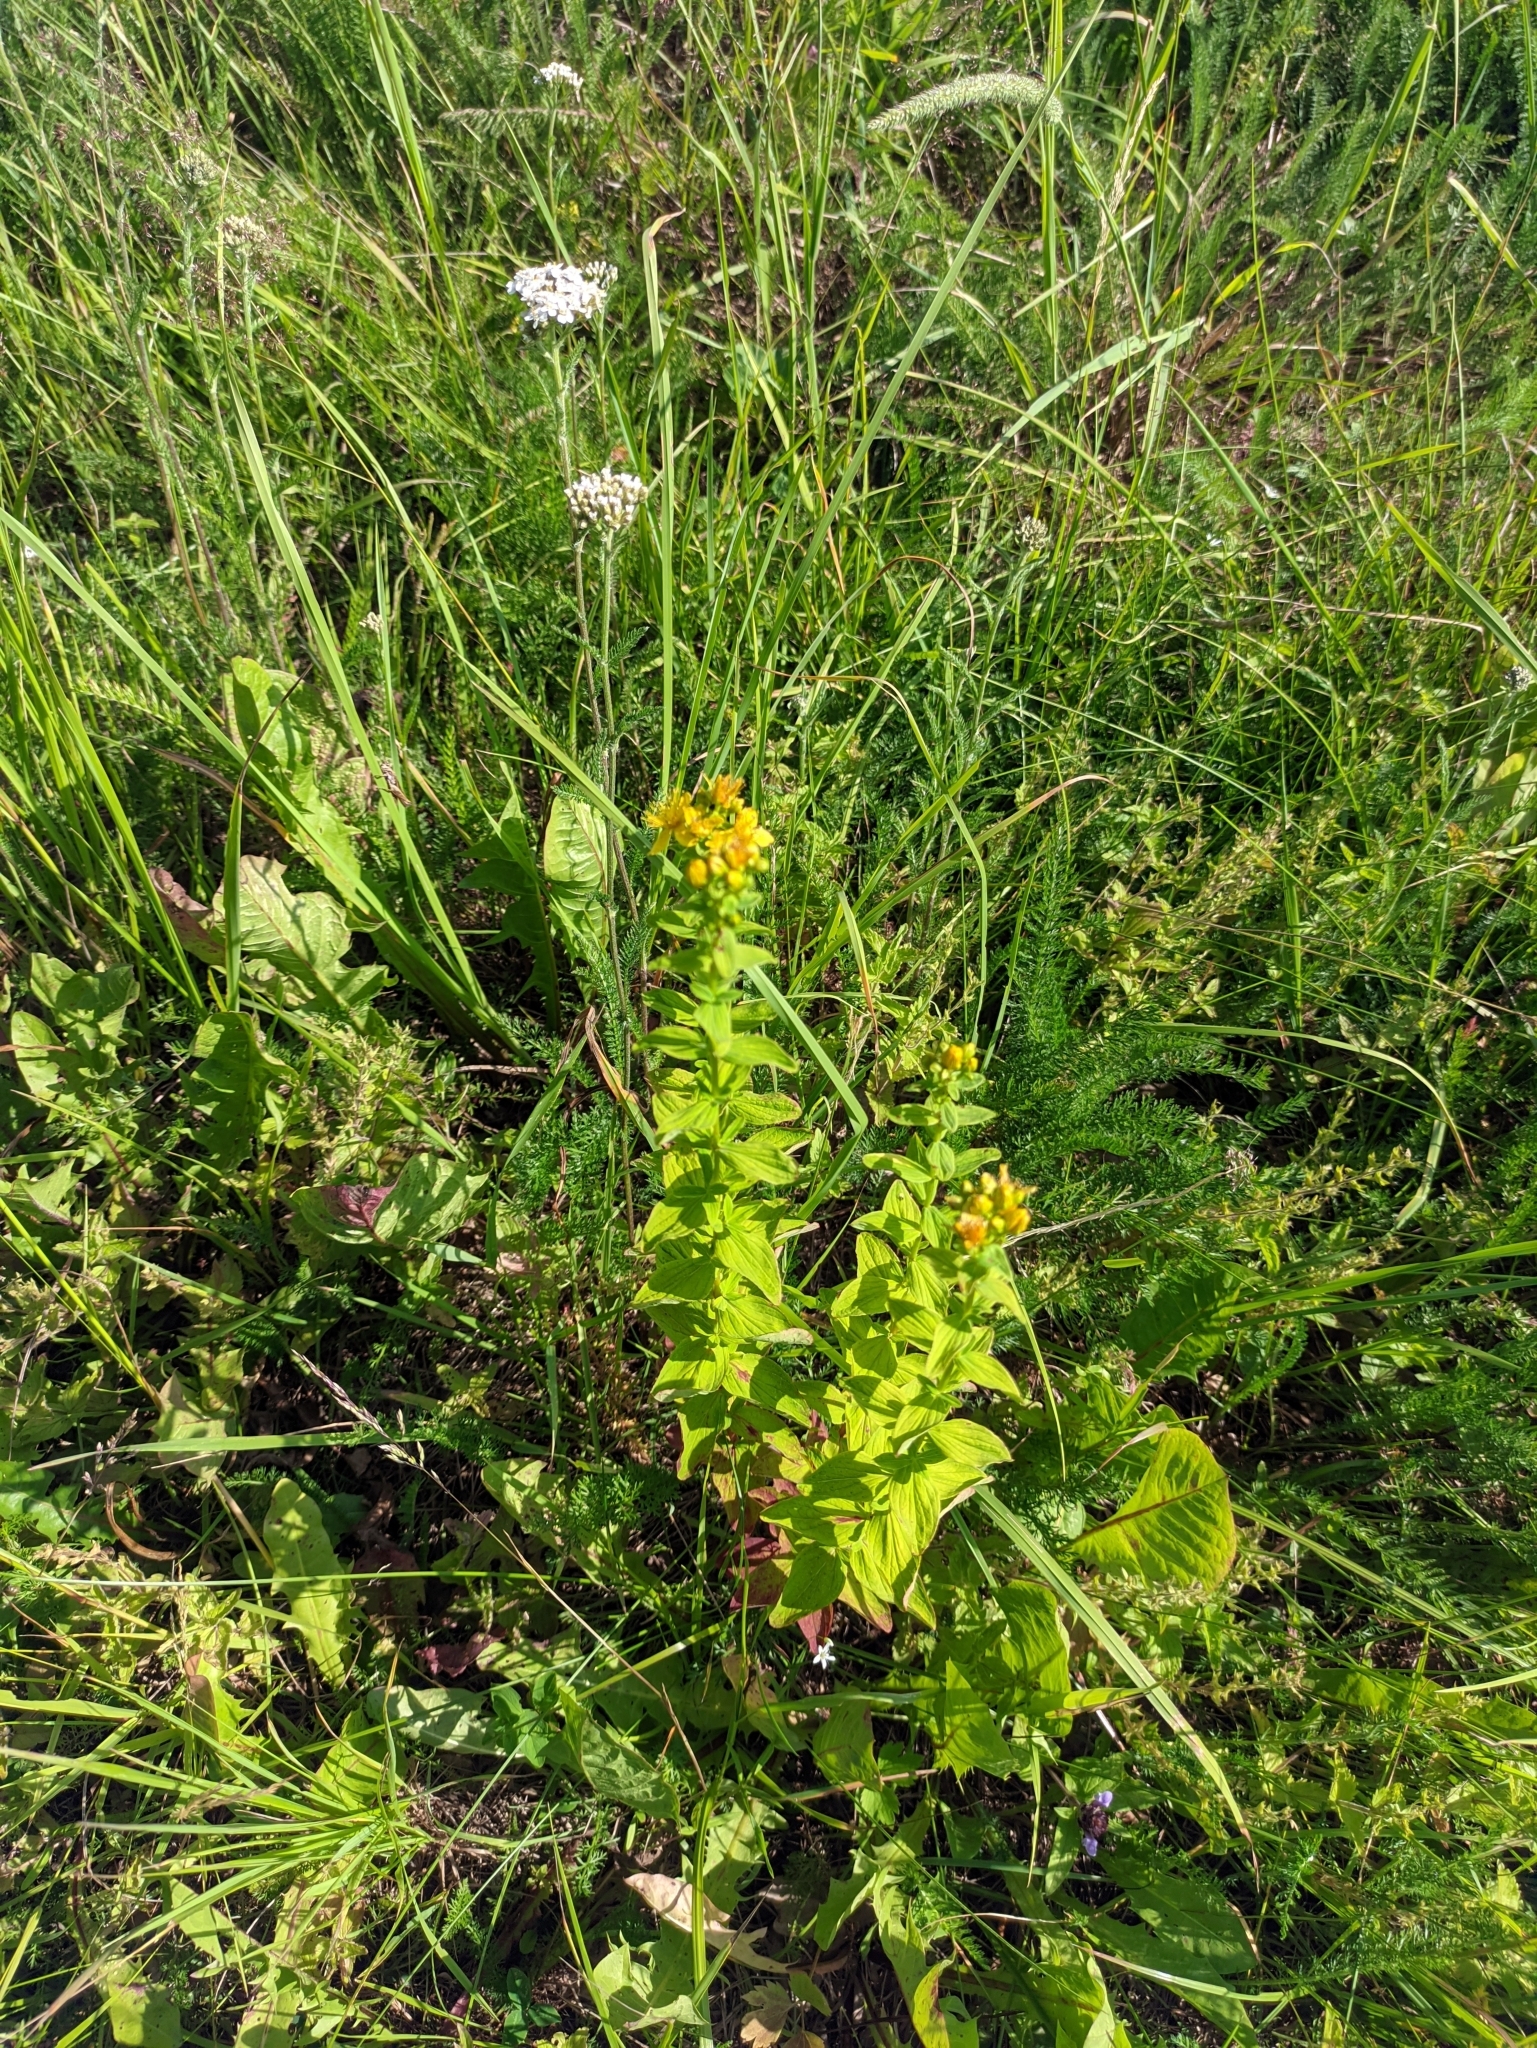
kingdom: Plantae
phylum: Tracheophyta
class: Magnoliopsida
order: Malpighiales
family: Hypericaceae
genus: Hypericum
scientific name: Hypericum maculatum
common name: Imperforate st. john's-wort
